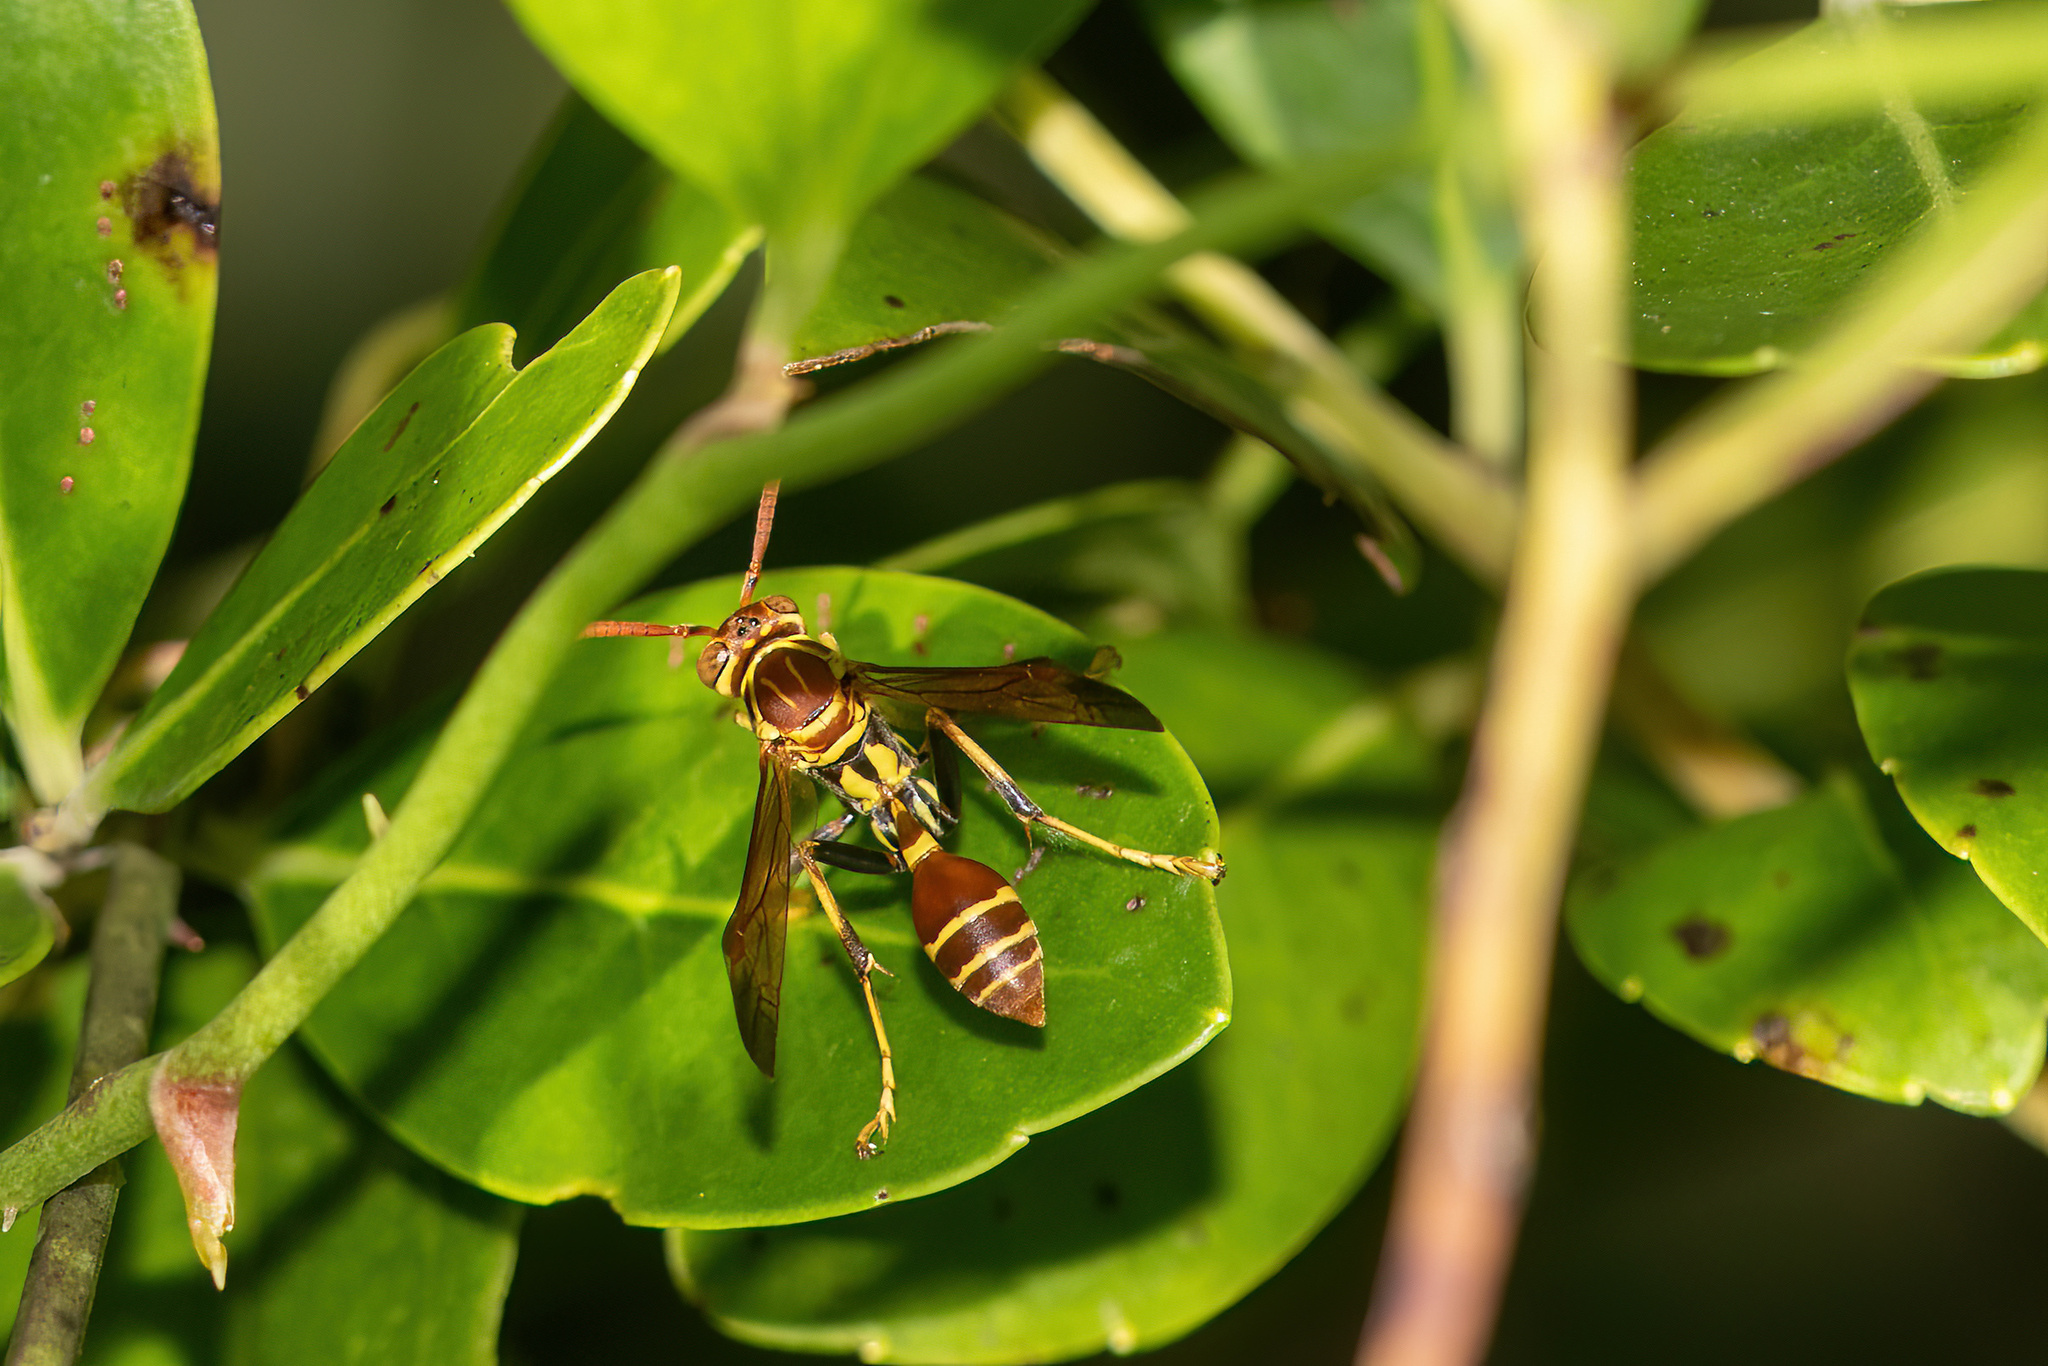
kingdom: Animalia
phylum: Arthropoda
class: Insecta
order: Hymenoptera
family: Vespidae
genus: Mischocyttarus
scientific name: Mischocyttarus mexicanus
